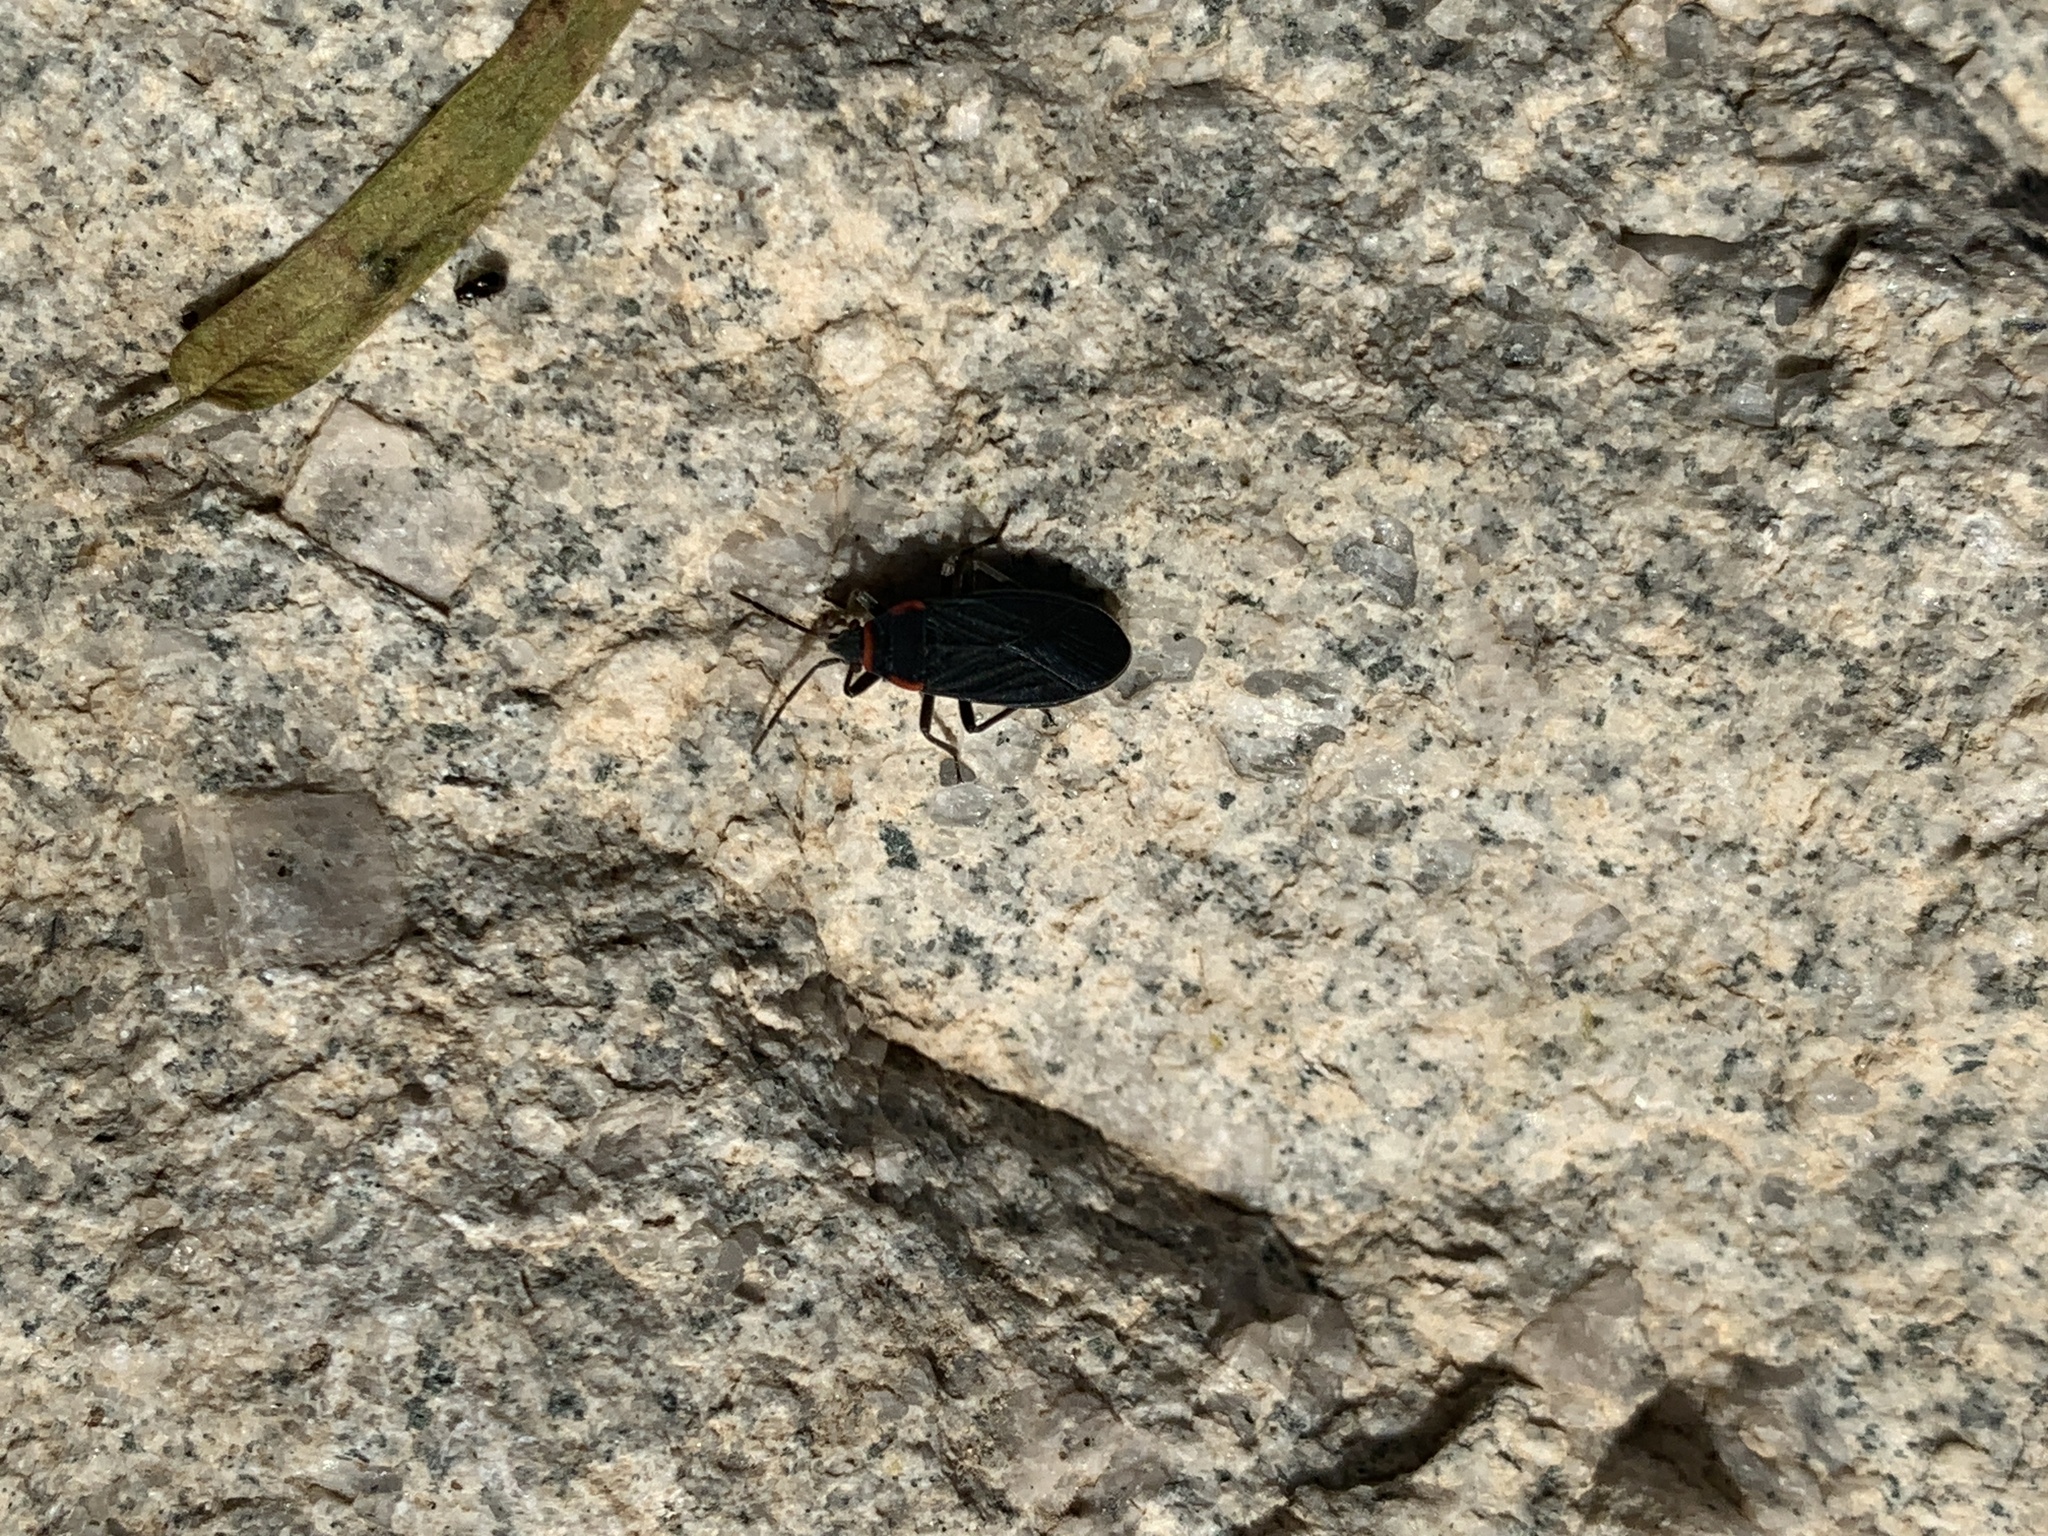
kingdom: Animalia
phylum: Arthropoda
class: Insecta
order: Hemiptera
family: Lygaeidae
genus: Melacoryphus
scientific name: Melacoryphus rubicollis
